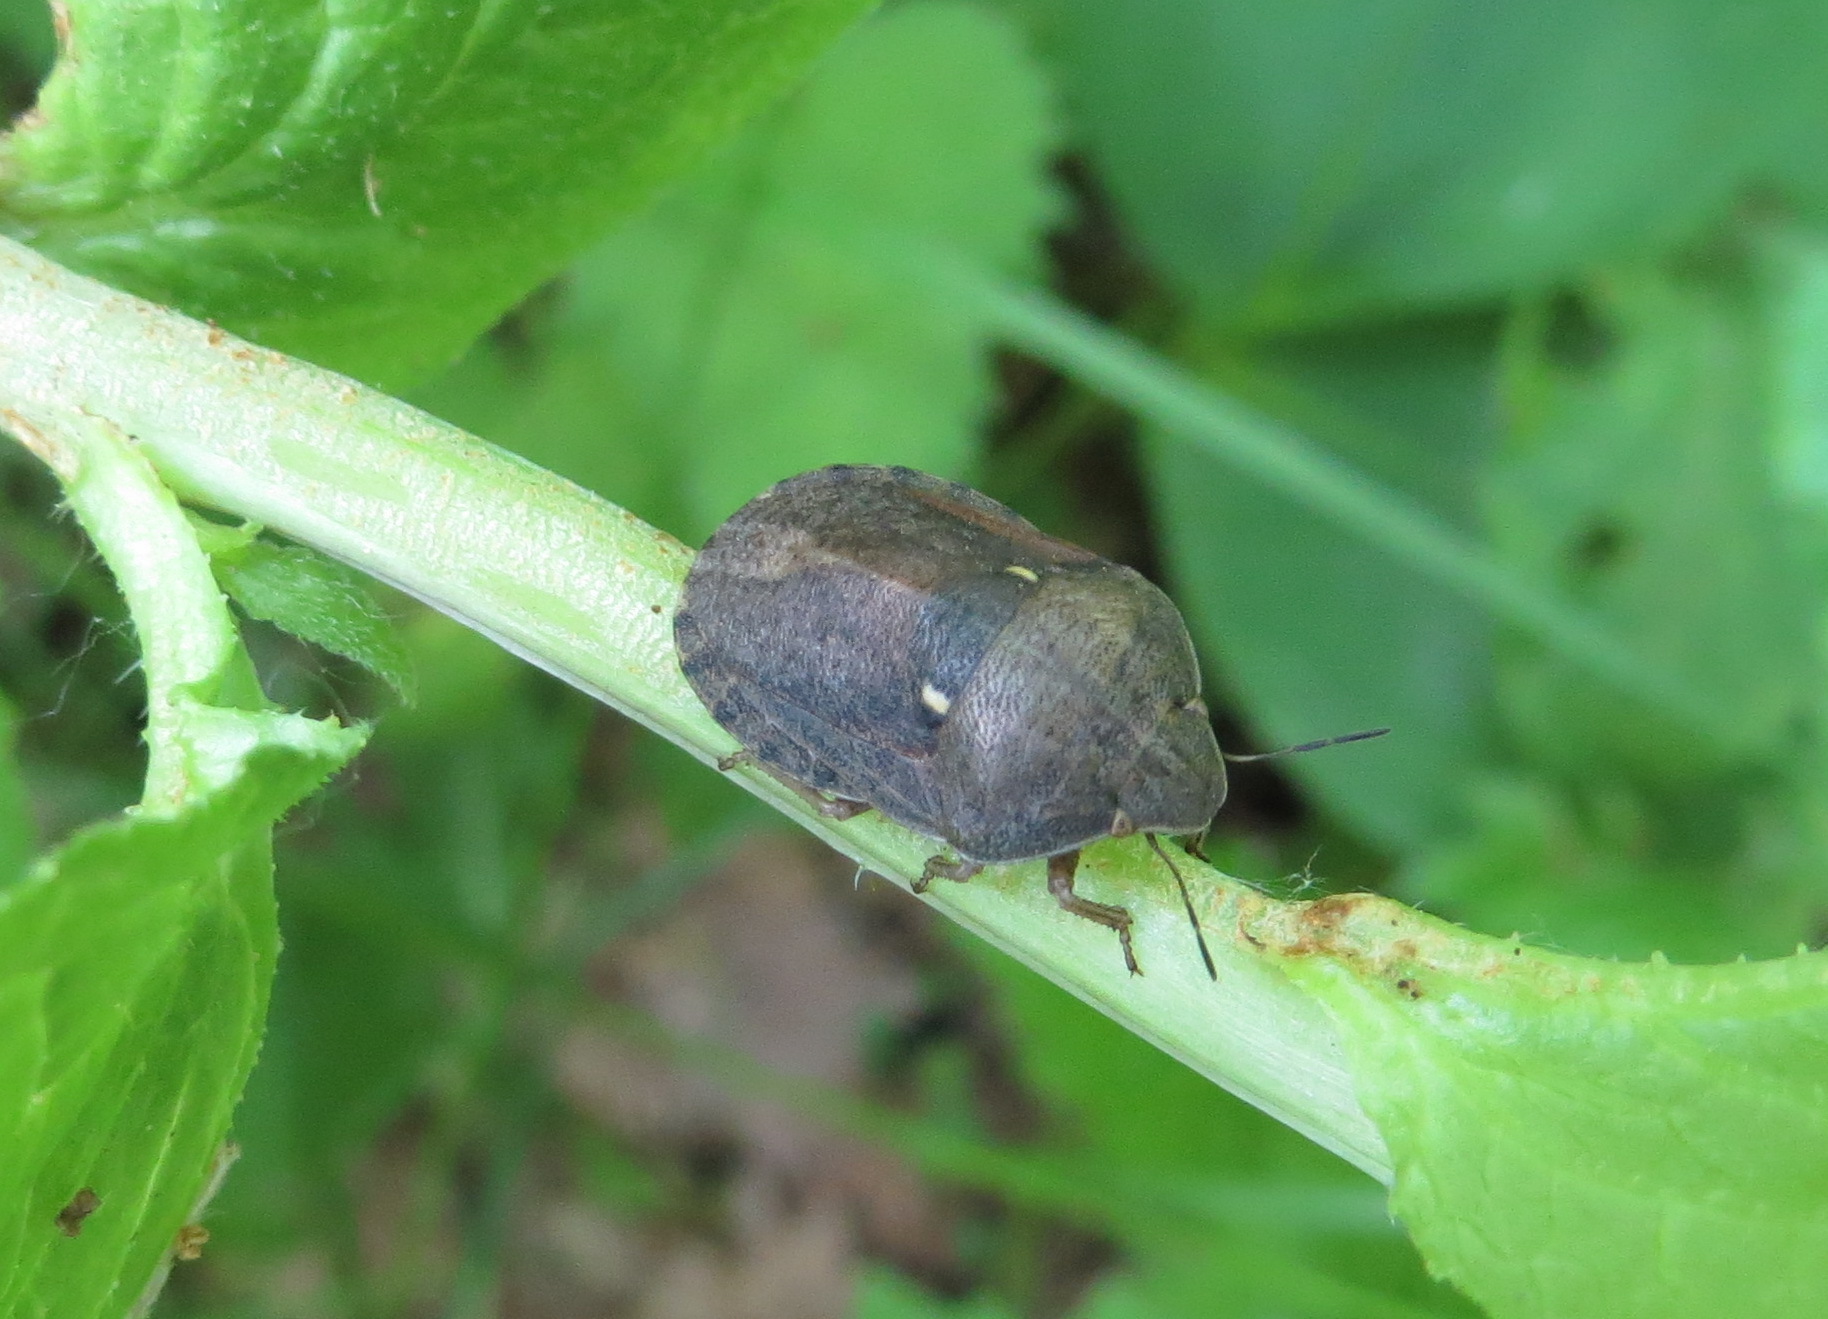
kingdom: Animalia
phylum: Arthropoda
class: Insecta
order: Hemiptera
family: Scutelleridae
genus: Eurygaster
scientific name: Eurygaster integriceps
